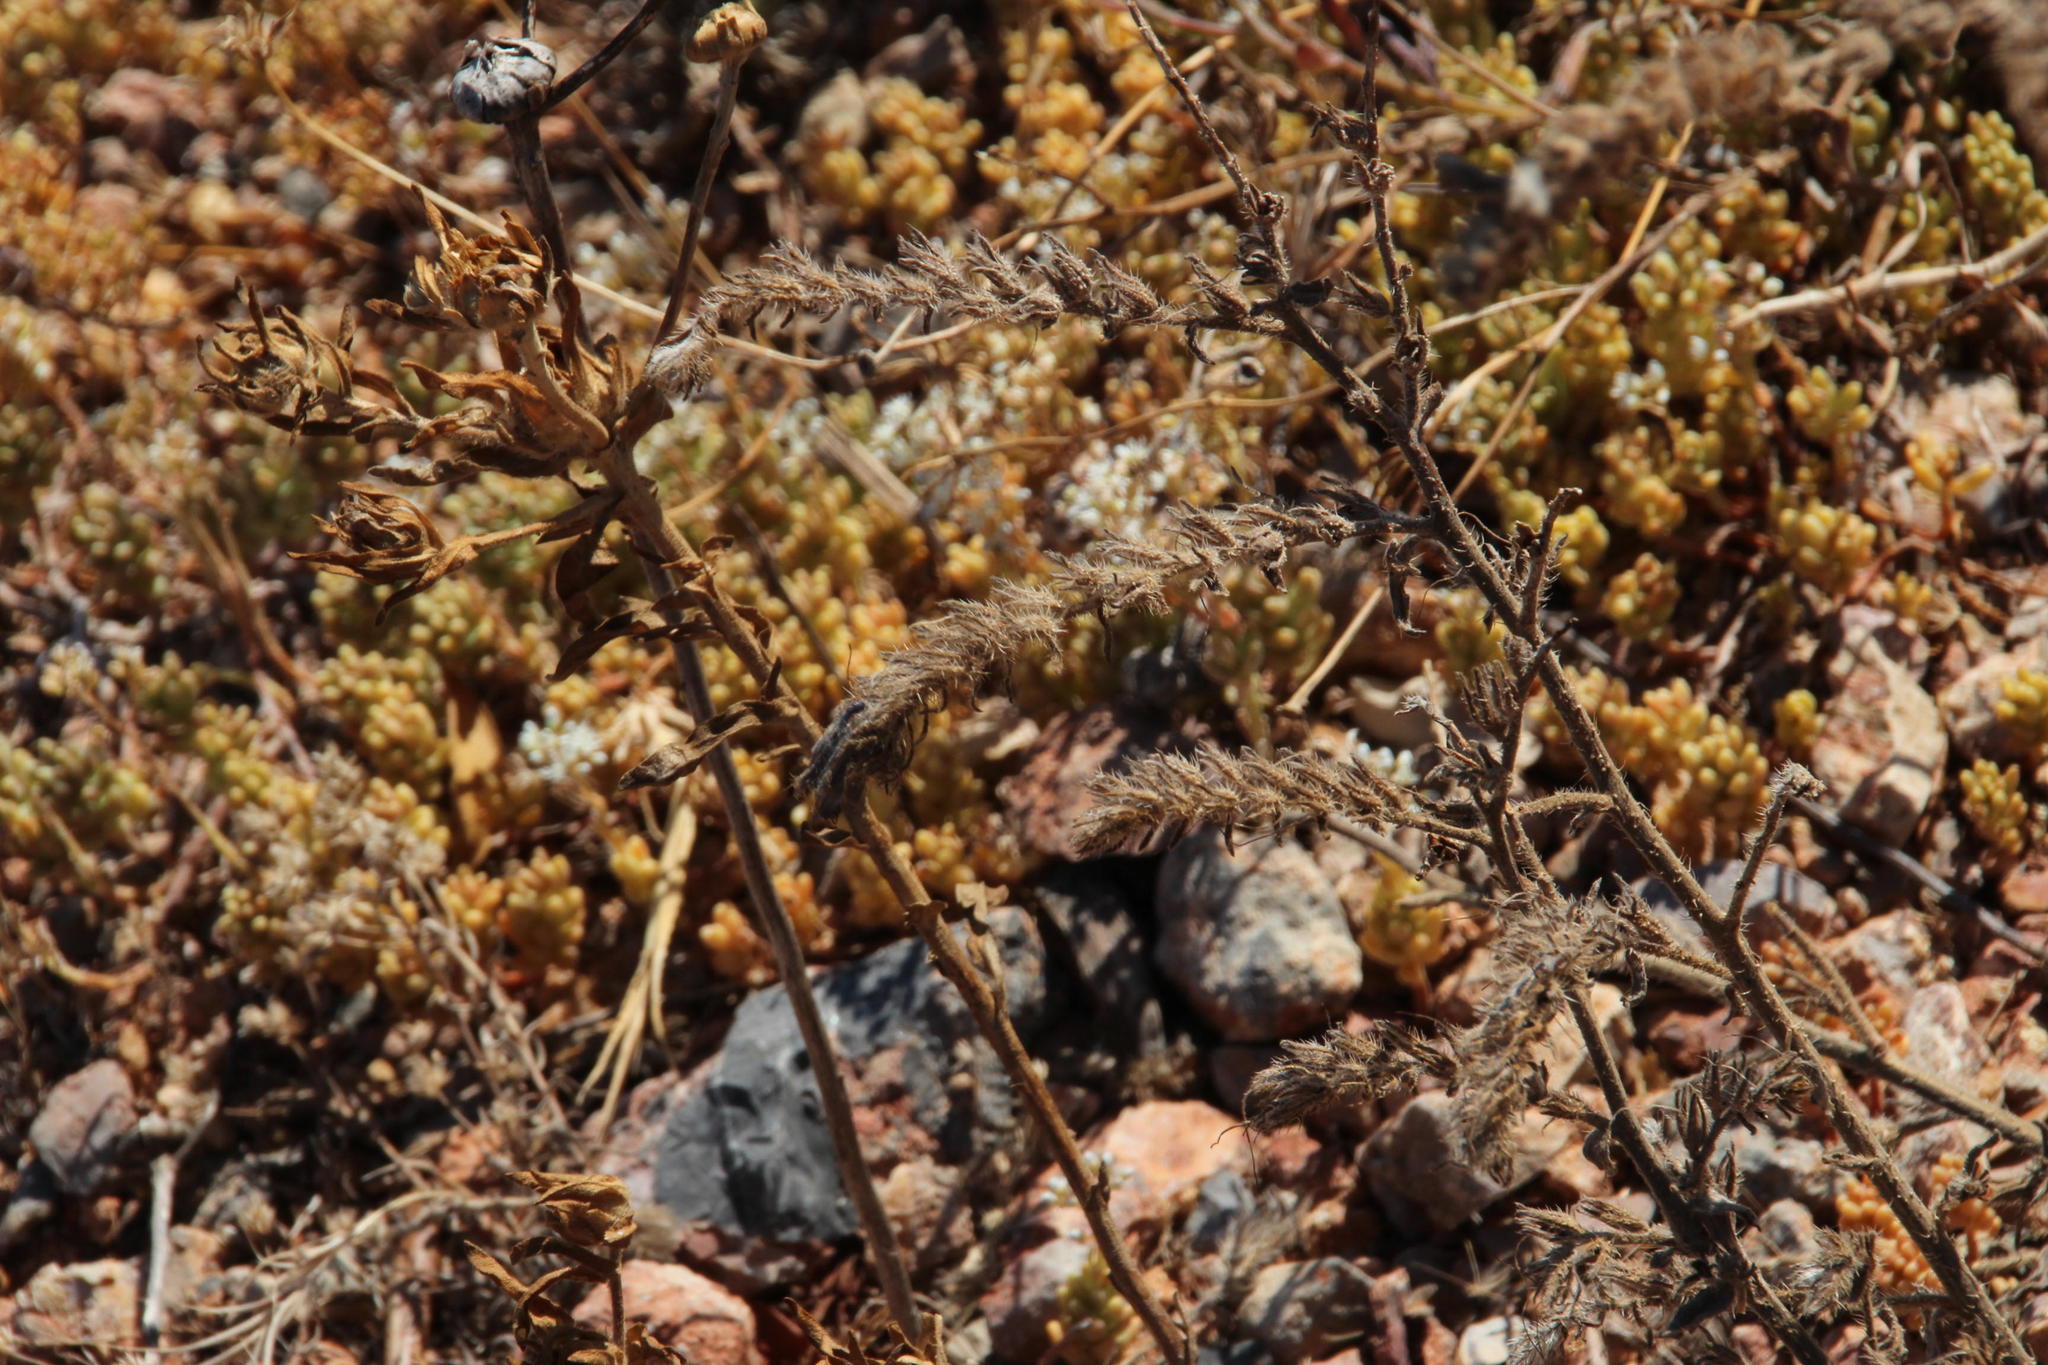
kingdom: Plantae
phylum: Tracheophyta
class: Magnoliopsida
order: Boraginales
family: Boraginaceae
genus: Echium
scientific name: Echium tuberculatum
